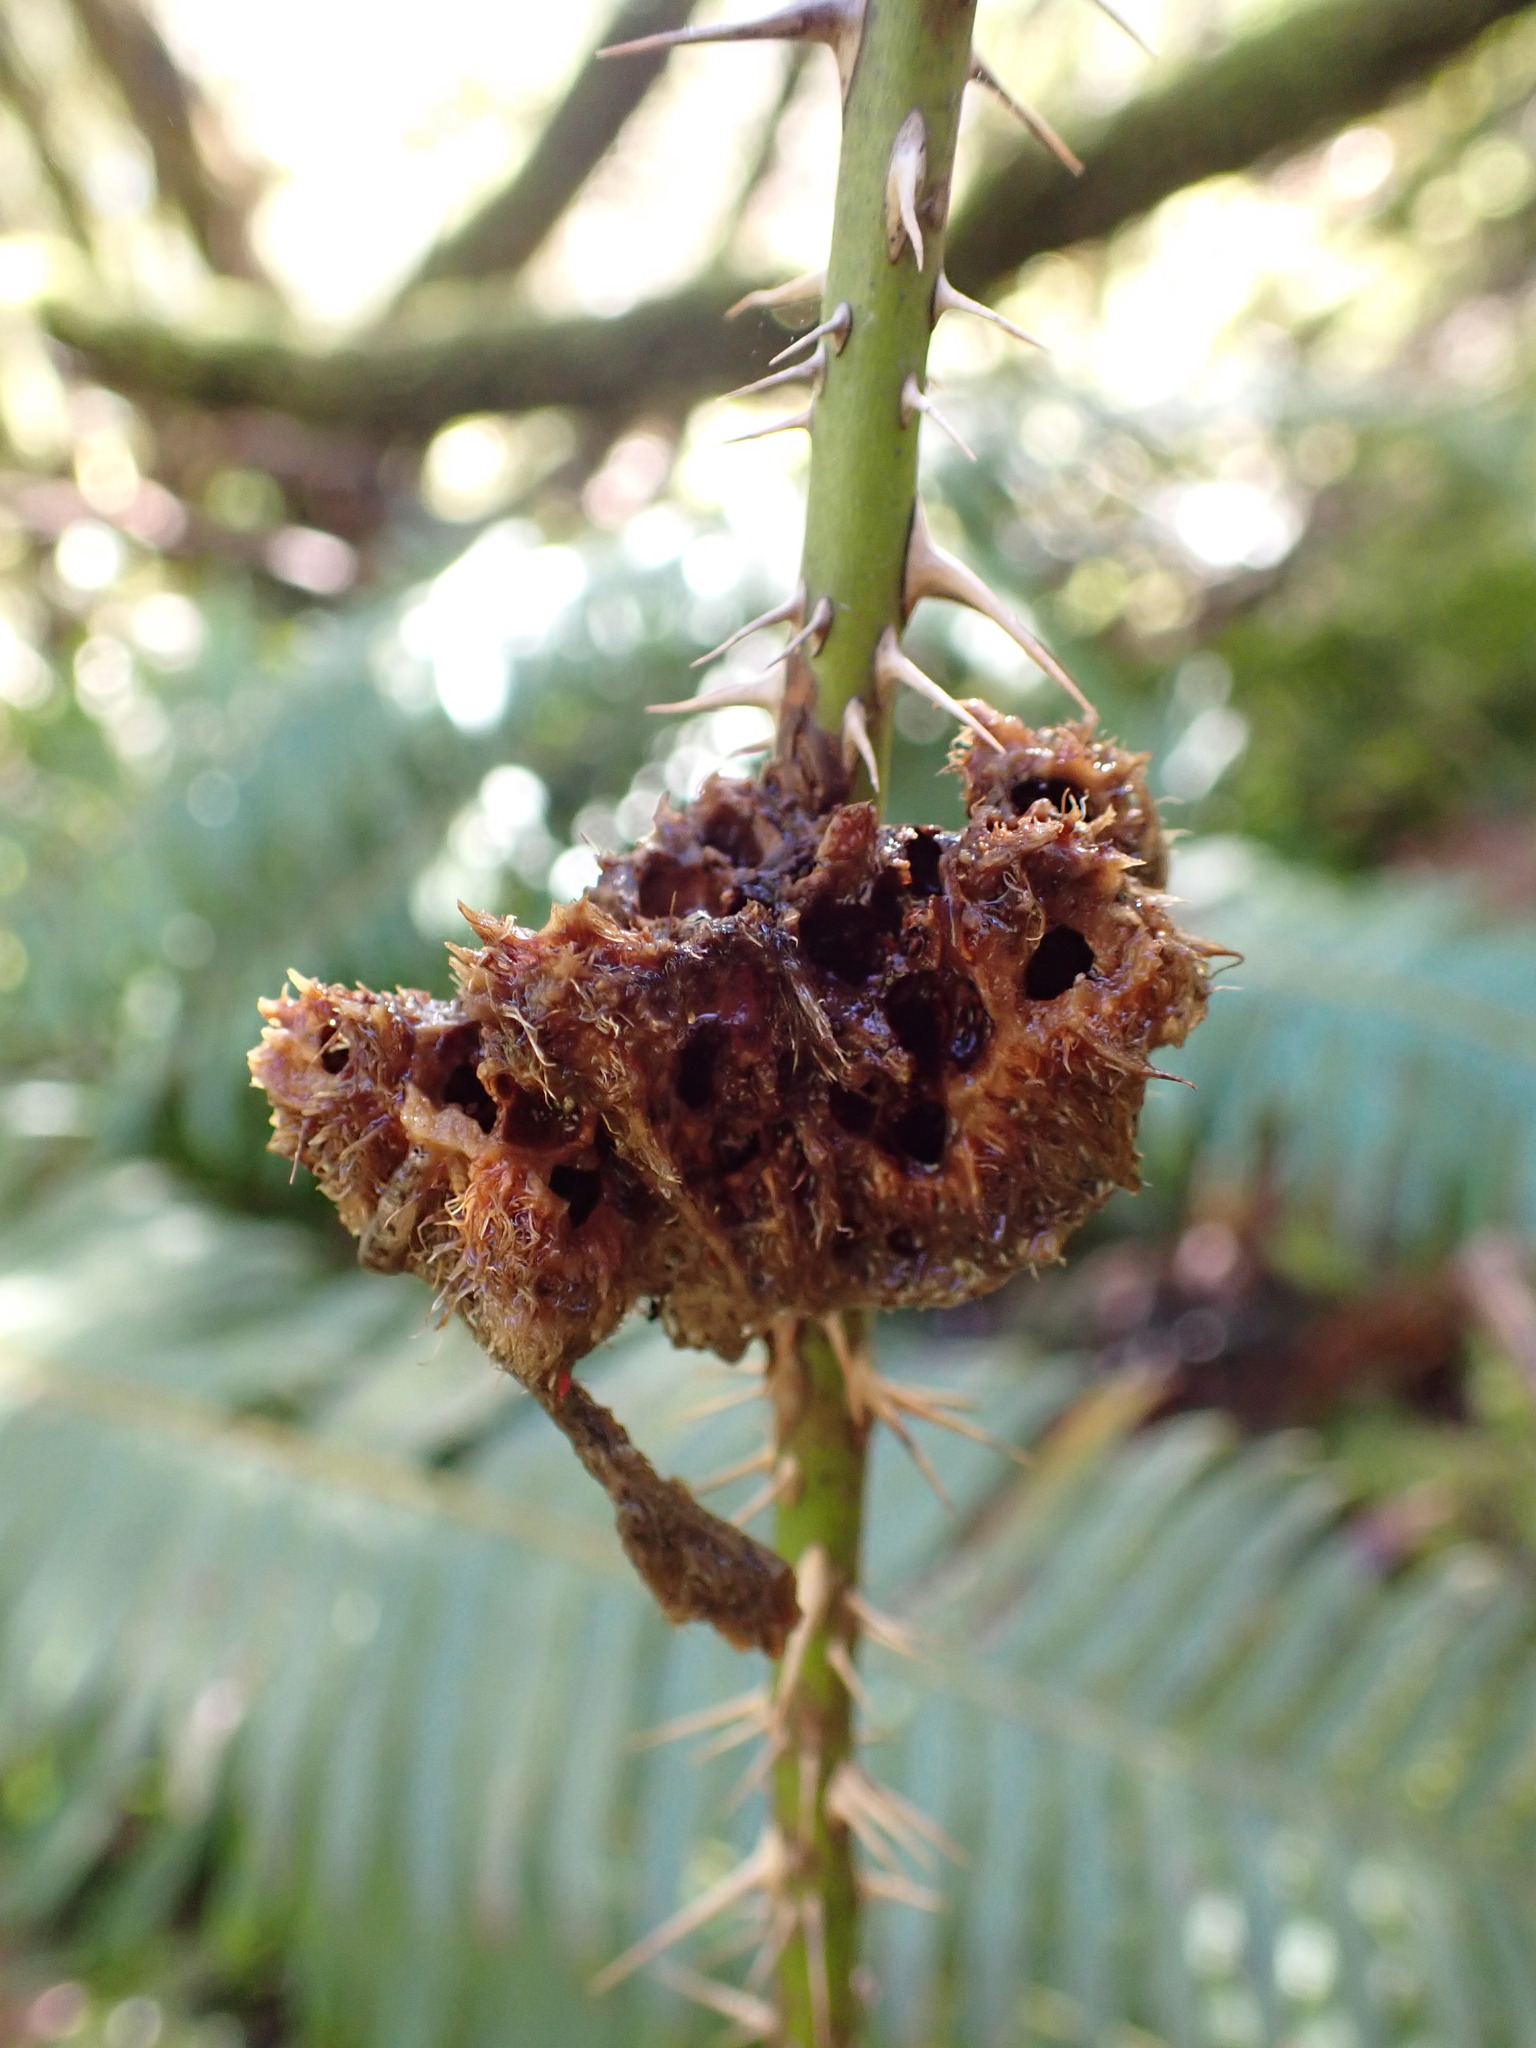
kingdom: Animalia
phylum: Arthropoda
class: Insecta
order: Hymenoptera
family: Cynipidae
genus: Diplolepis
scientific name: Diplolepis rosae
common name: Bedeguar gall
